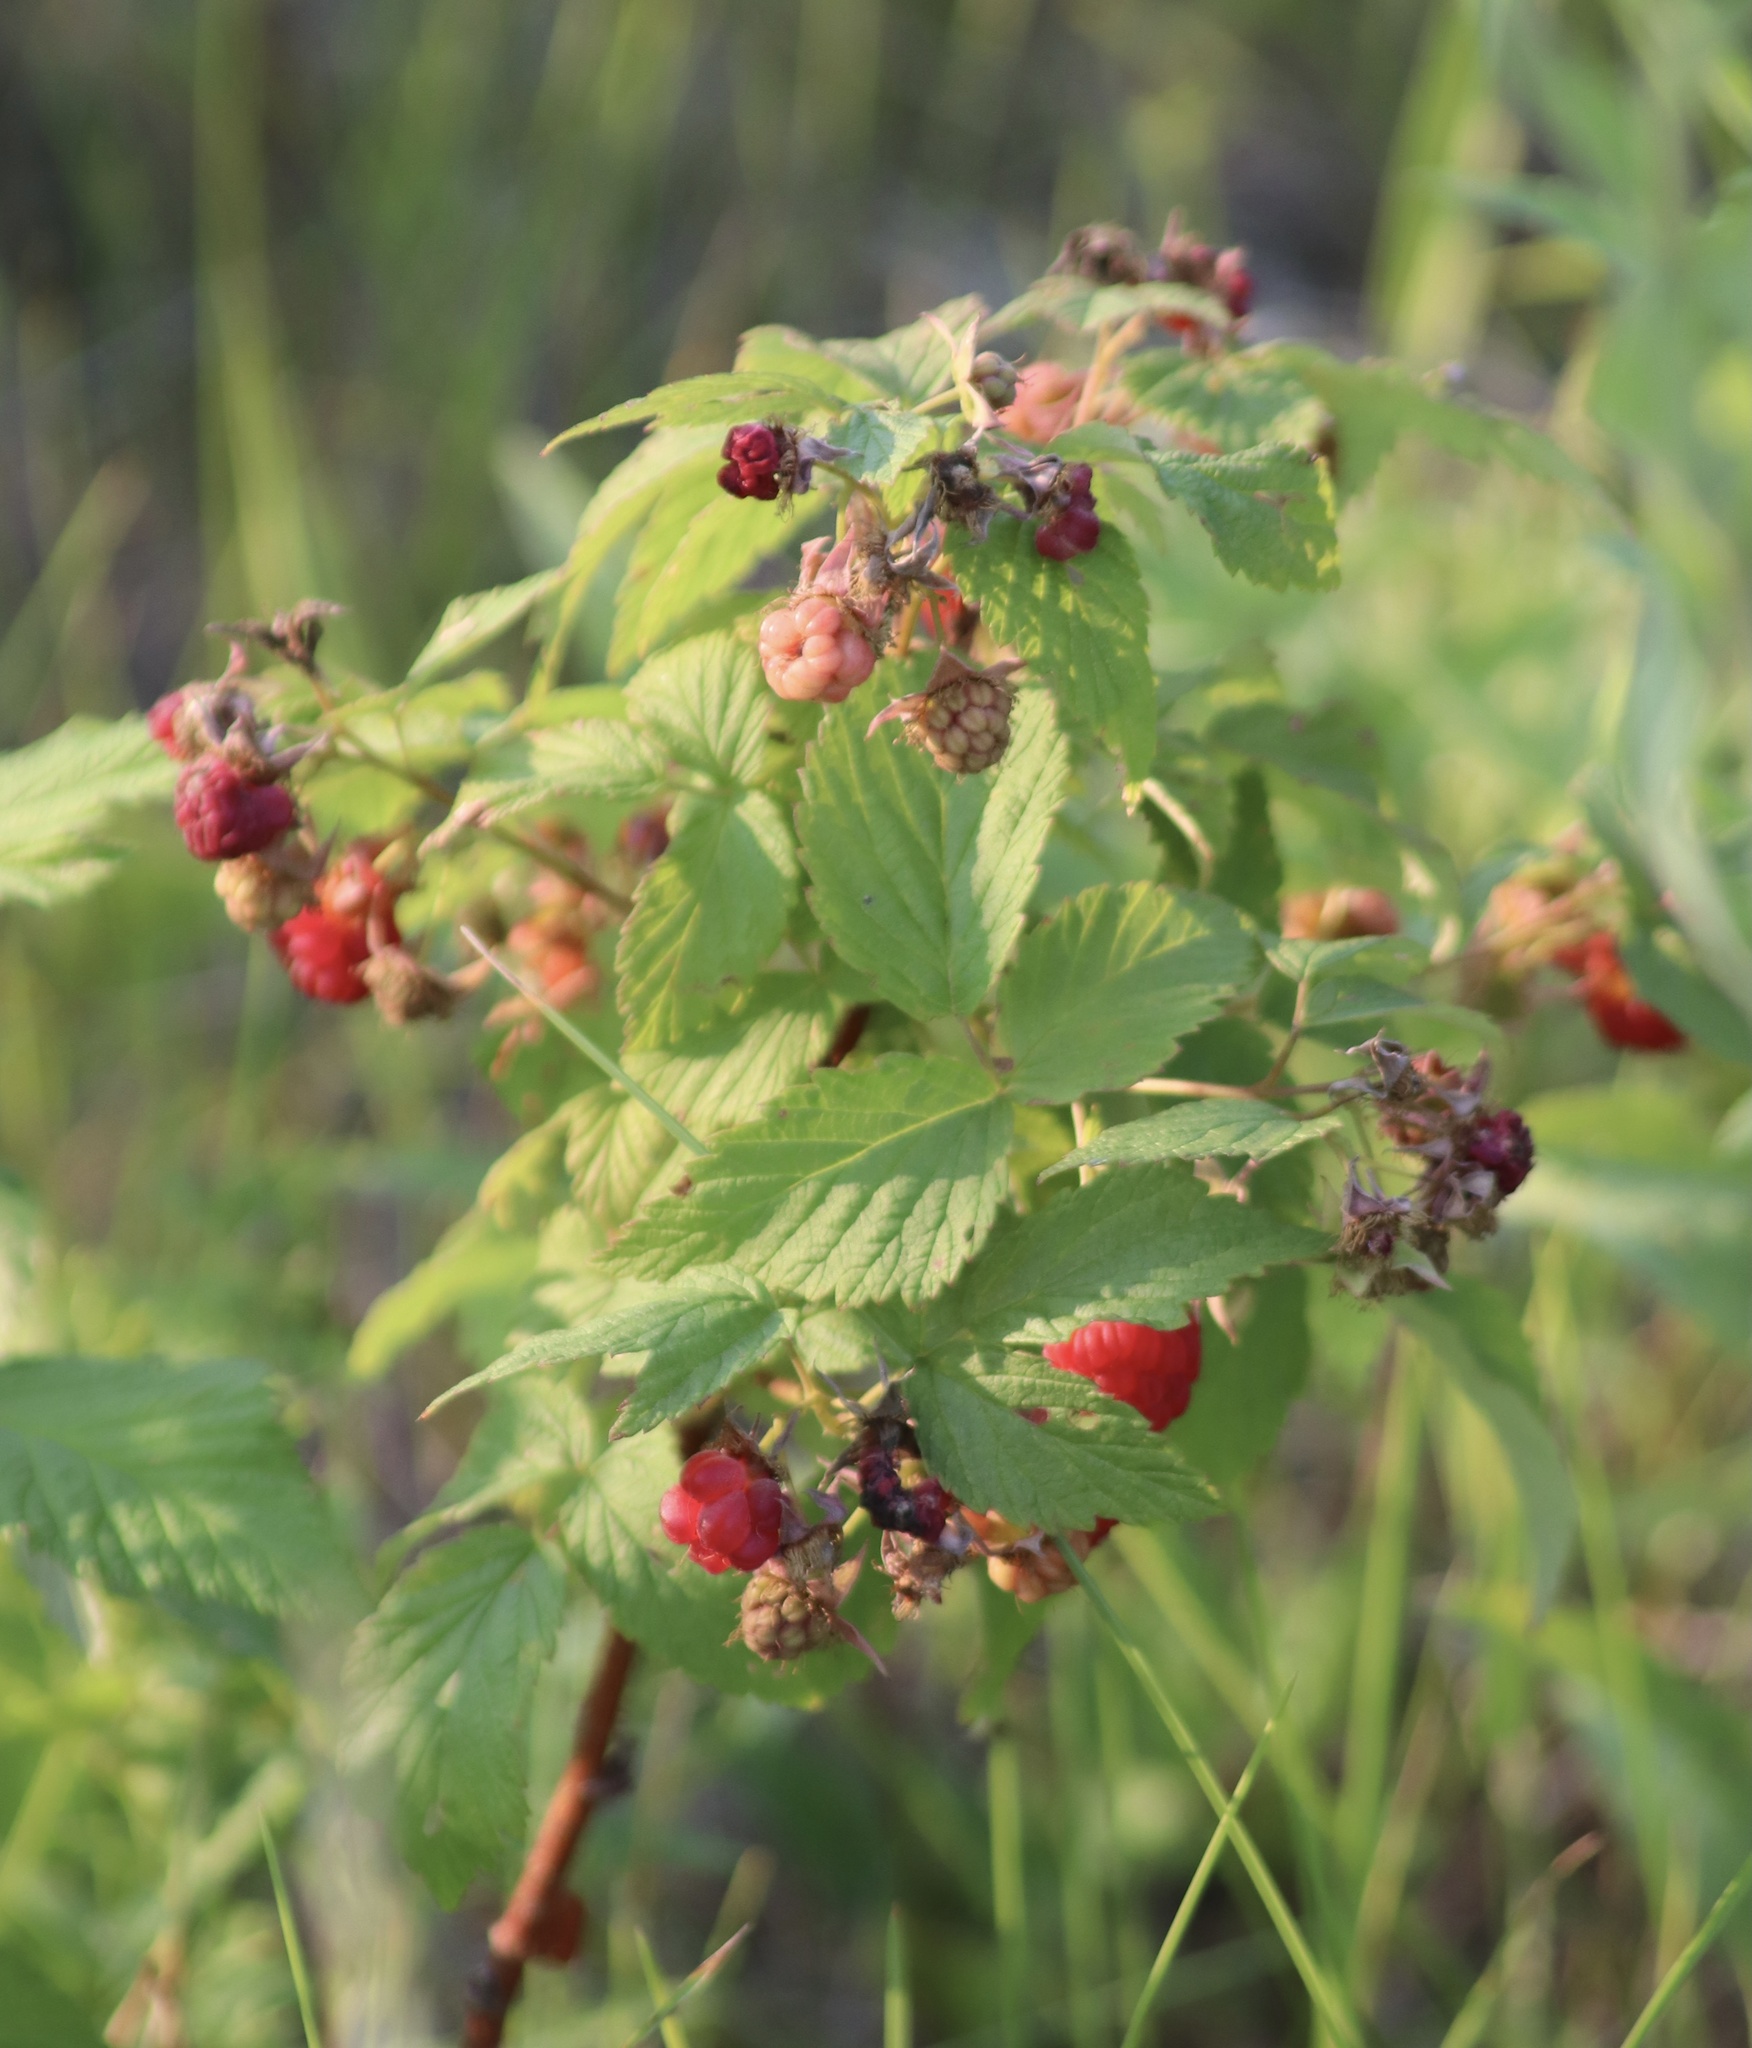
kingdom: Plantae
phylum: Tracheophyta
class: Magnoliopsida
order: Rosales
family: Rosaceae
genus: Rubus
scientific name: Rubus idaeus
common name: Raspberry
